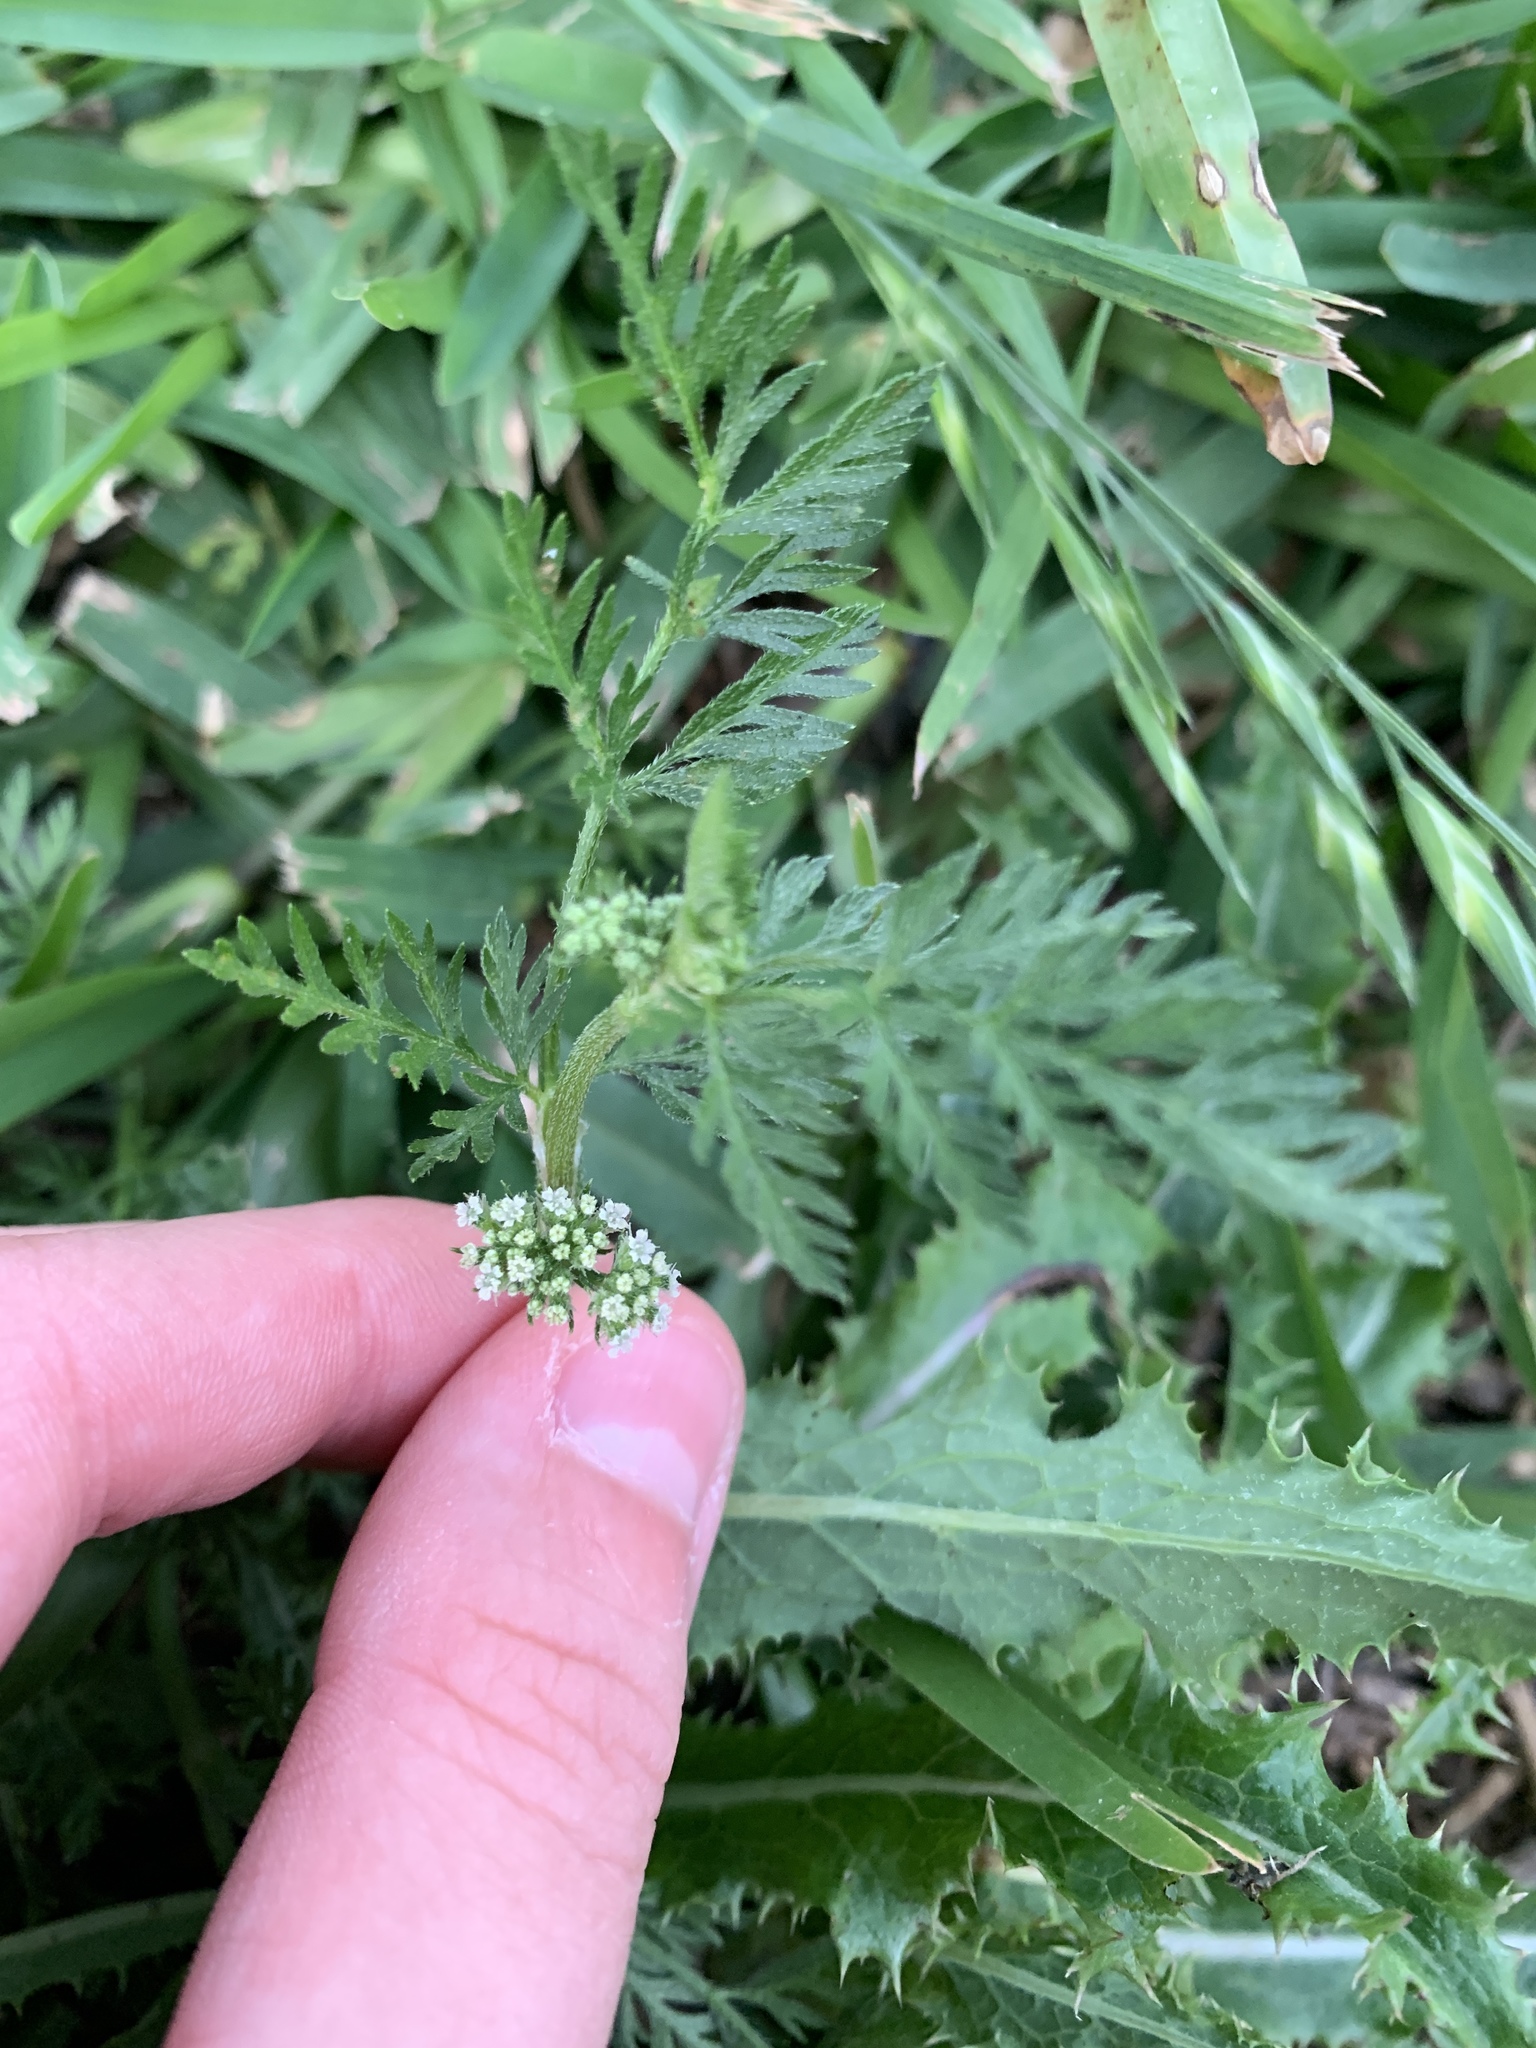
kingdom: Plantae
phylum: Tracheophyta
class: Magnoliopsida
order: Apiales
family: Apiaceae
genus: Torilis
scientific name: Torilis nodosa
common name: Knotted hedge-parsley
